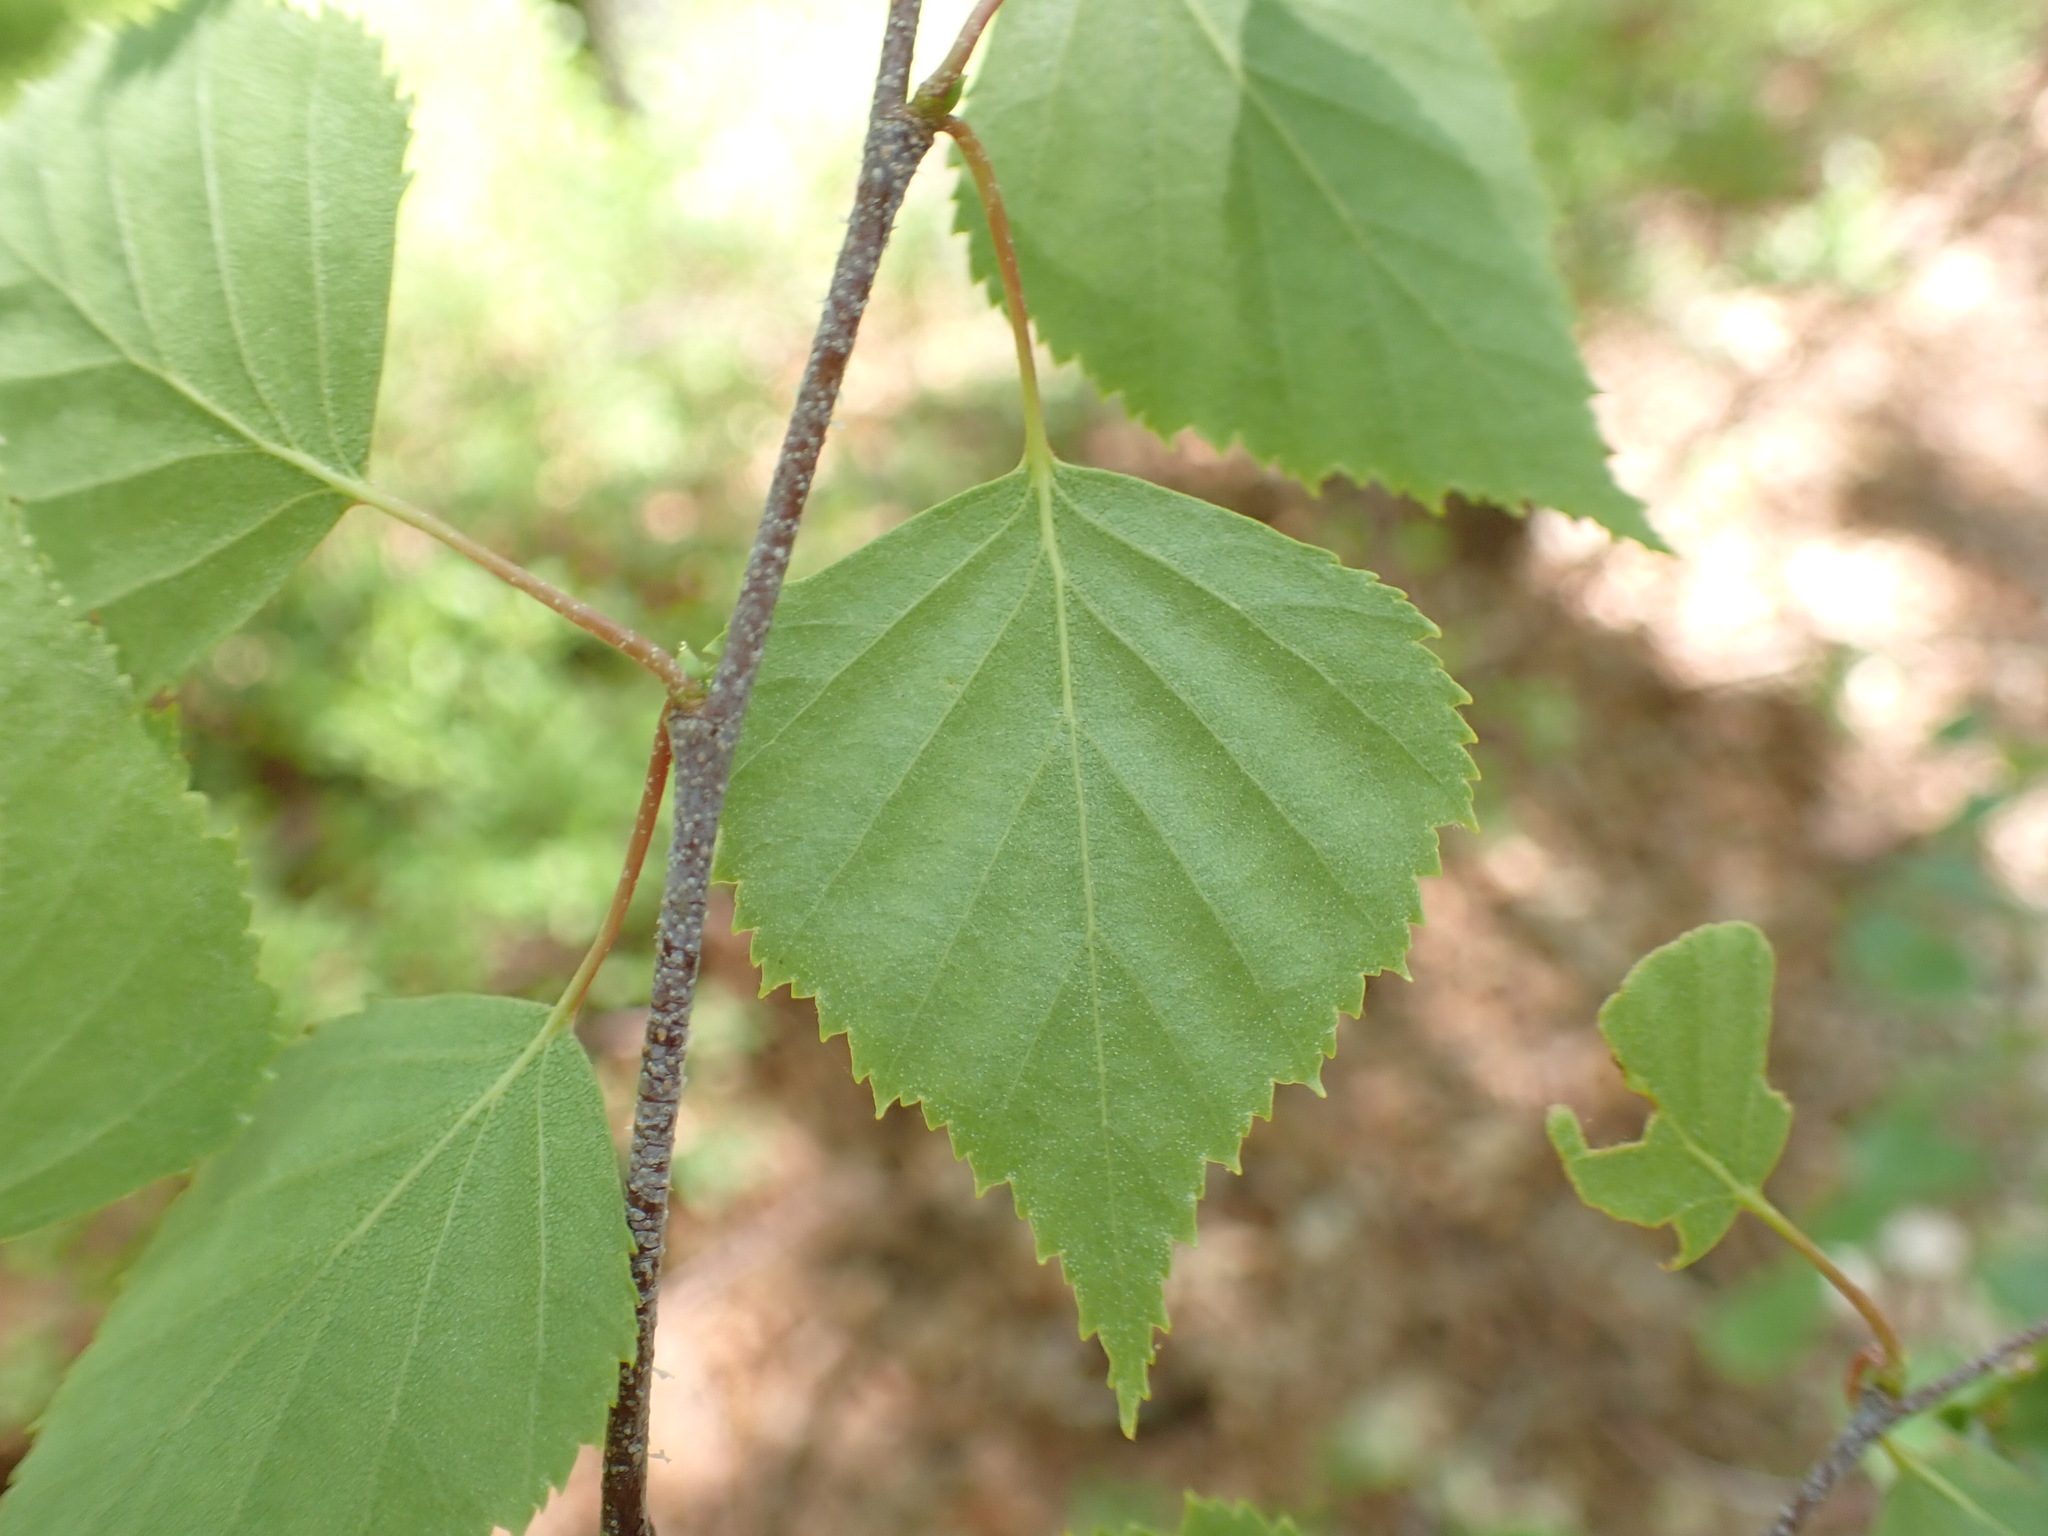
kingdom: Plantae
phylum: Tracheophyta
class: Magnoliopsida
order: Fagales
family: Betulaceae
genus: Betula
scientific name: Betula pendula
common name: Silver birch
